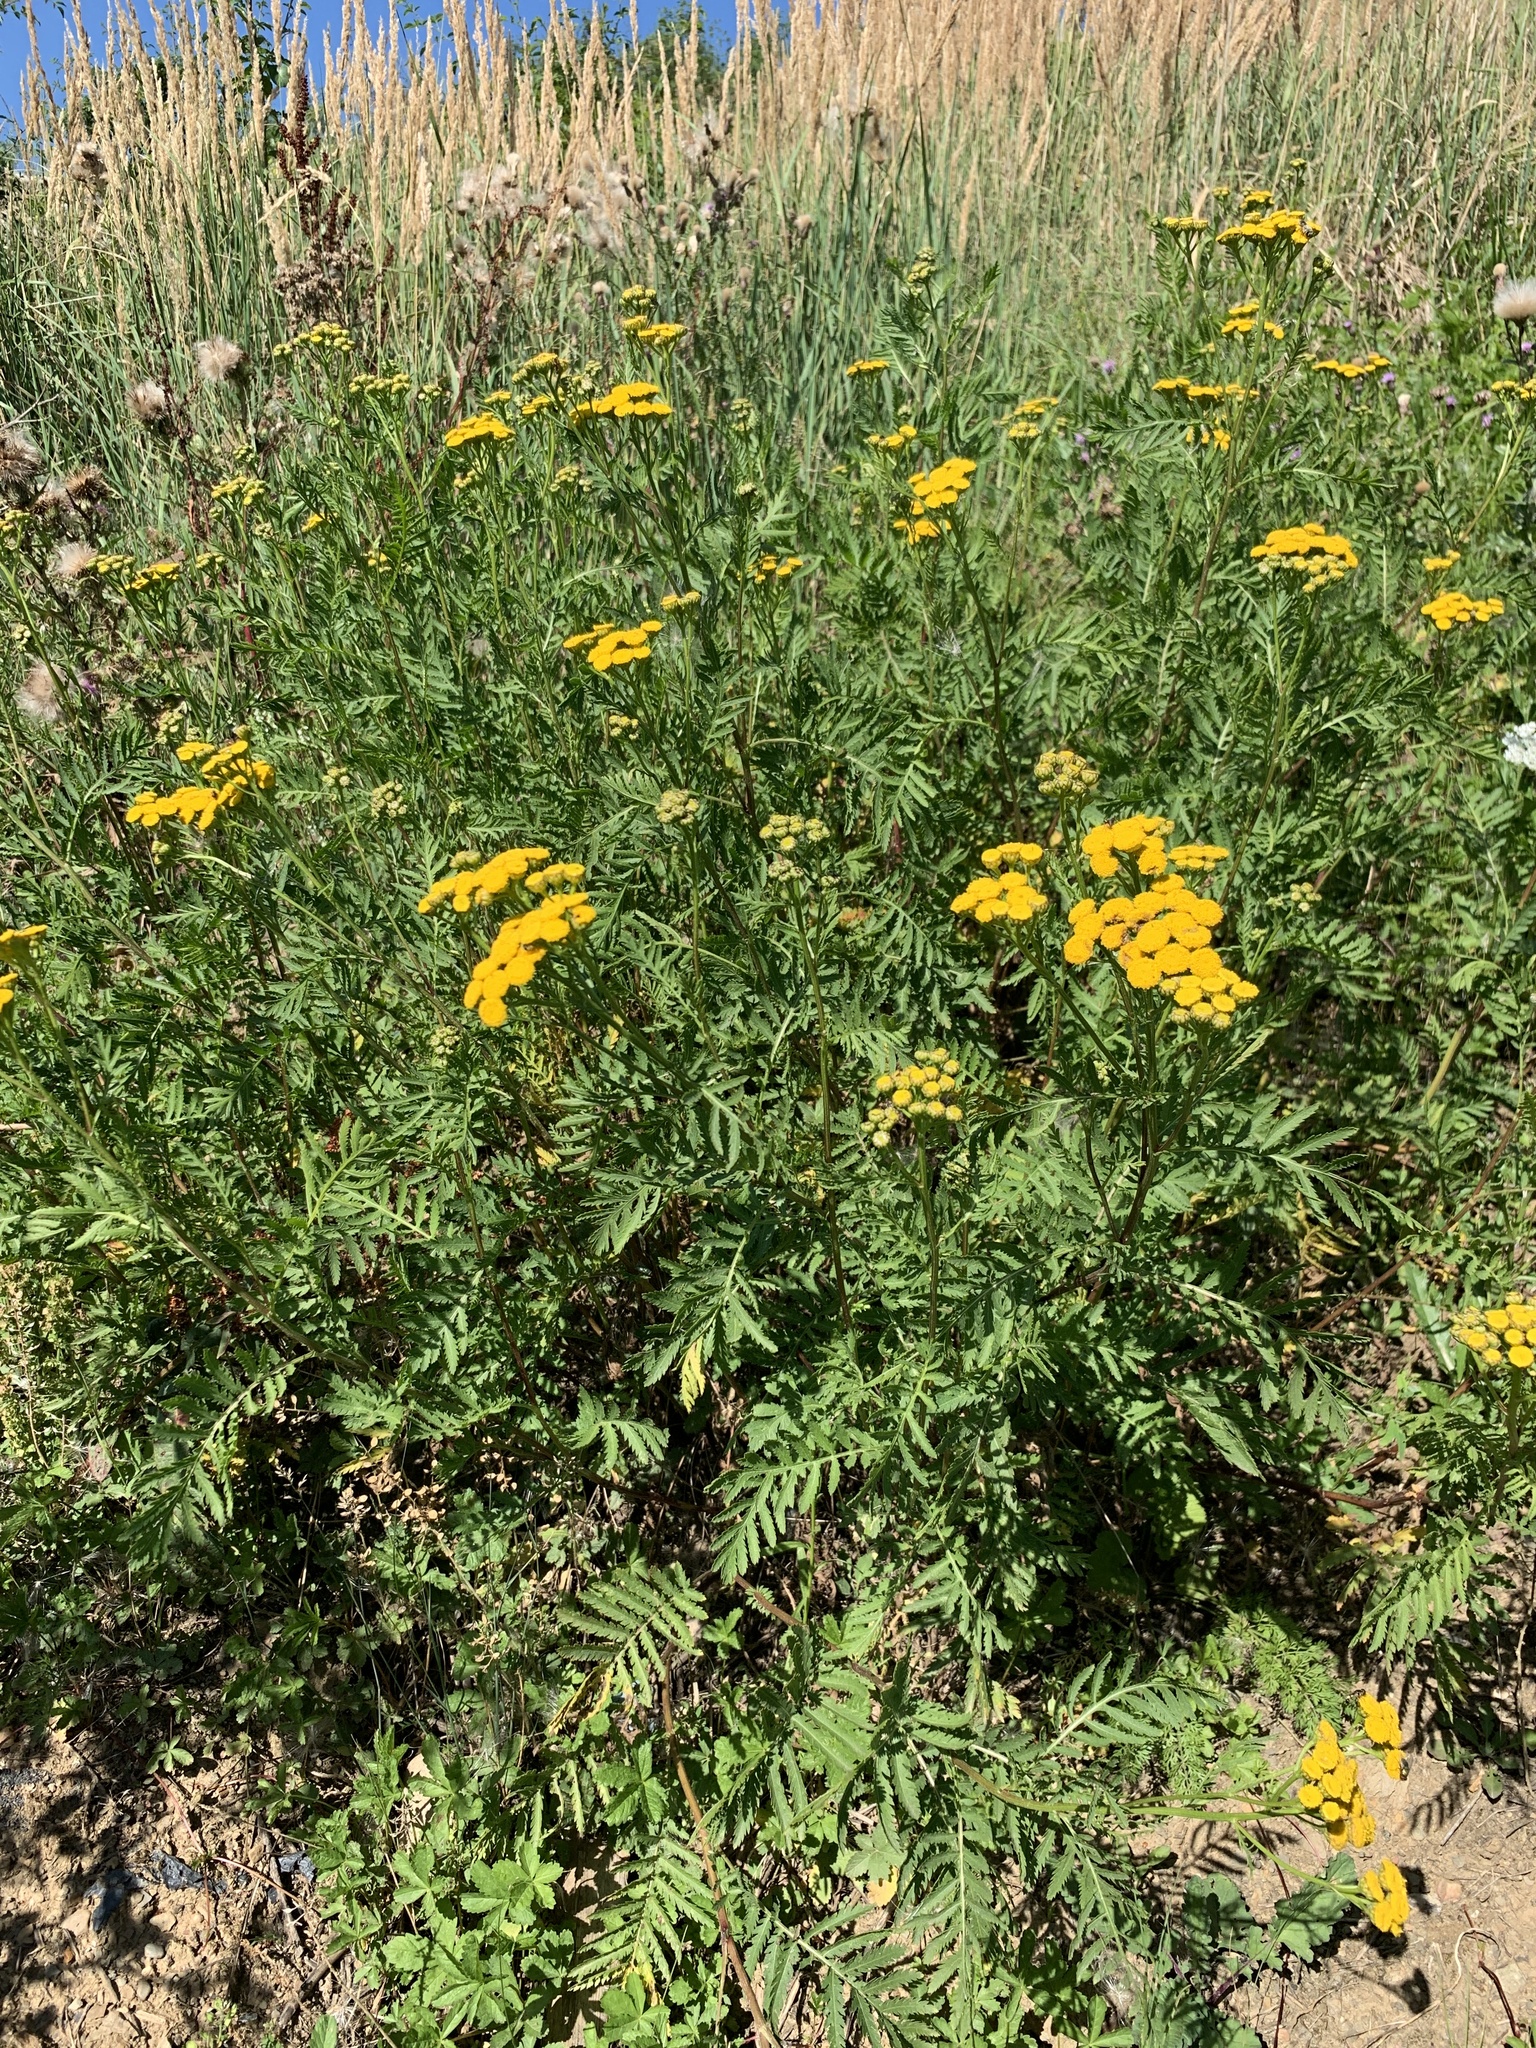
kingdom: Plantae
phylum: Tracheophyta
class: Magnoliopsida
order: Asterales
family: Asteraceae
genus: Tanacetum
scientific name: Tanacetum vulgare
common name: Common tansy
